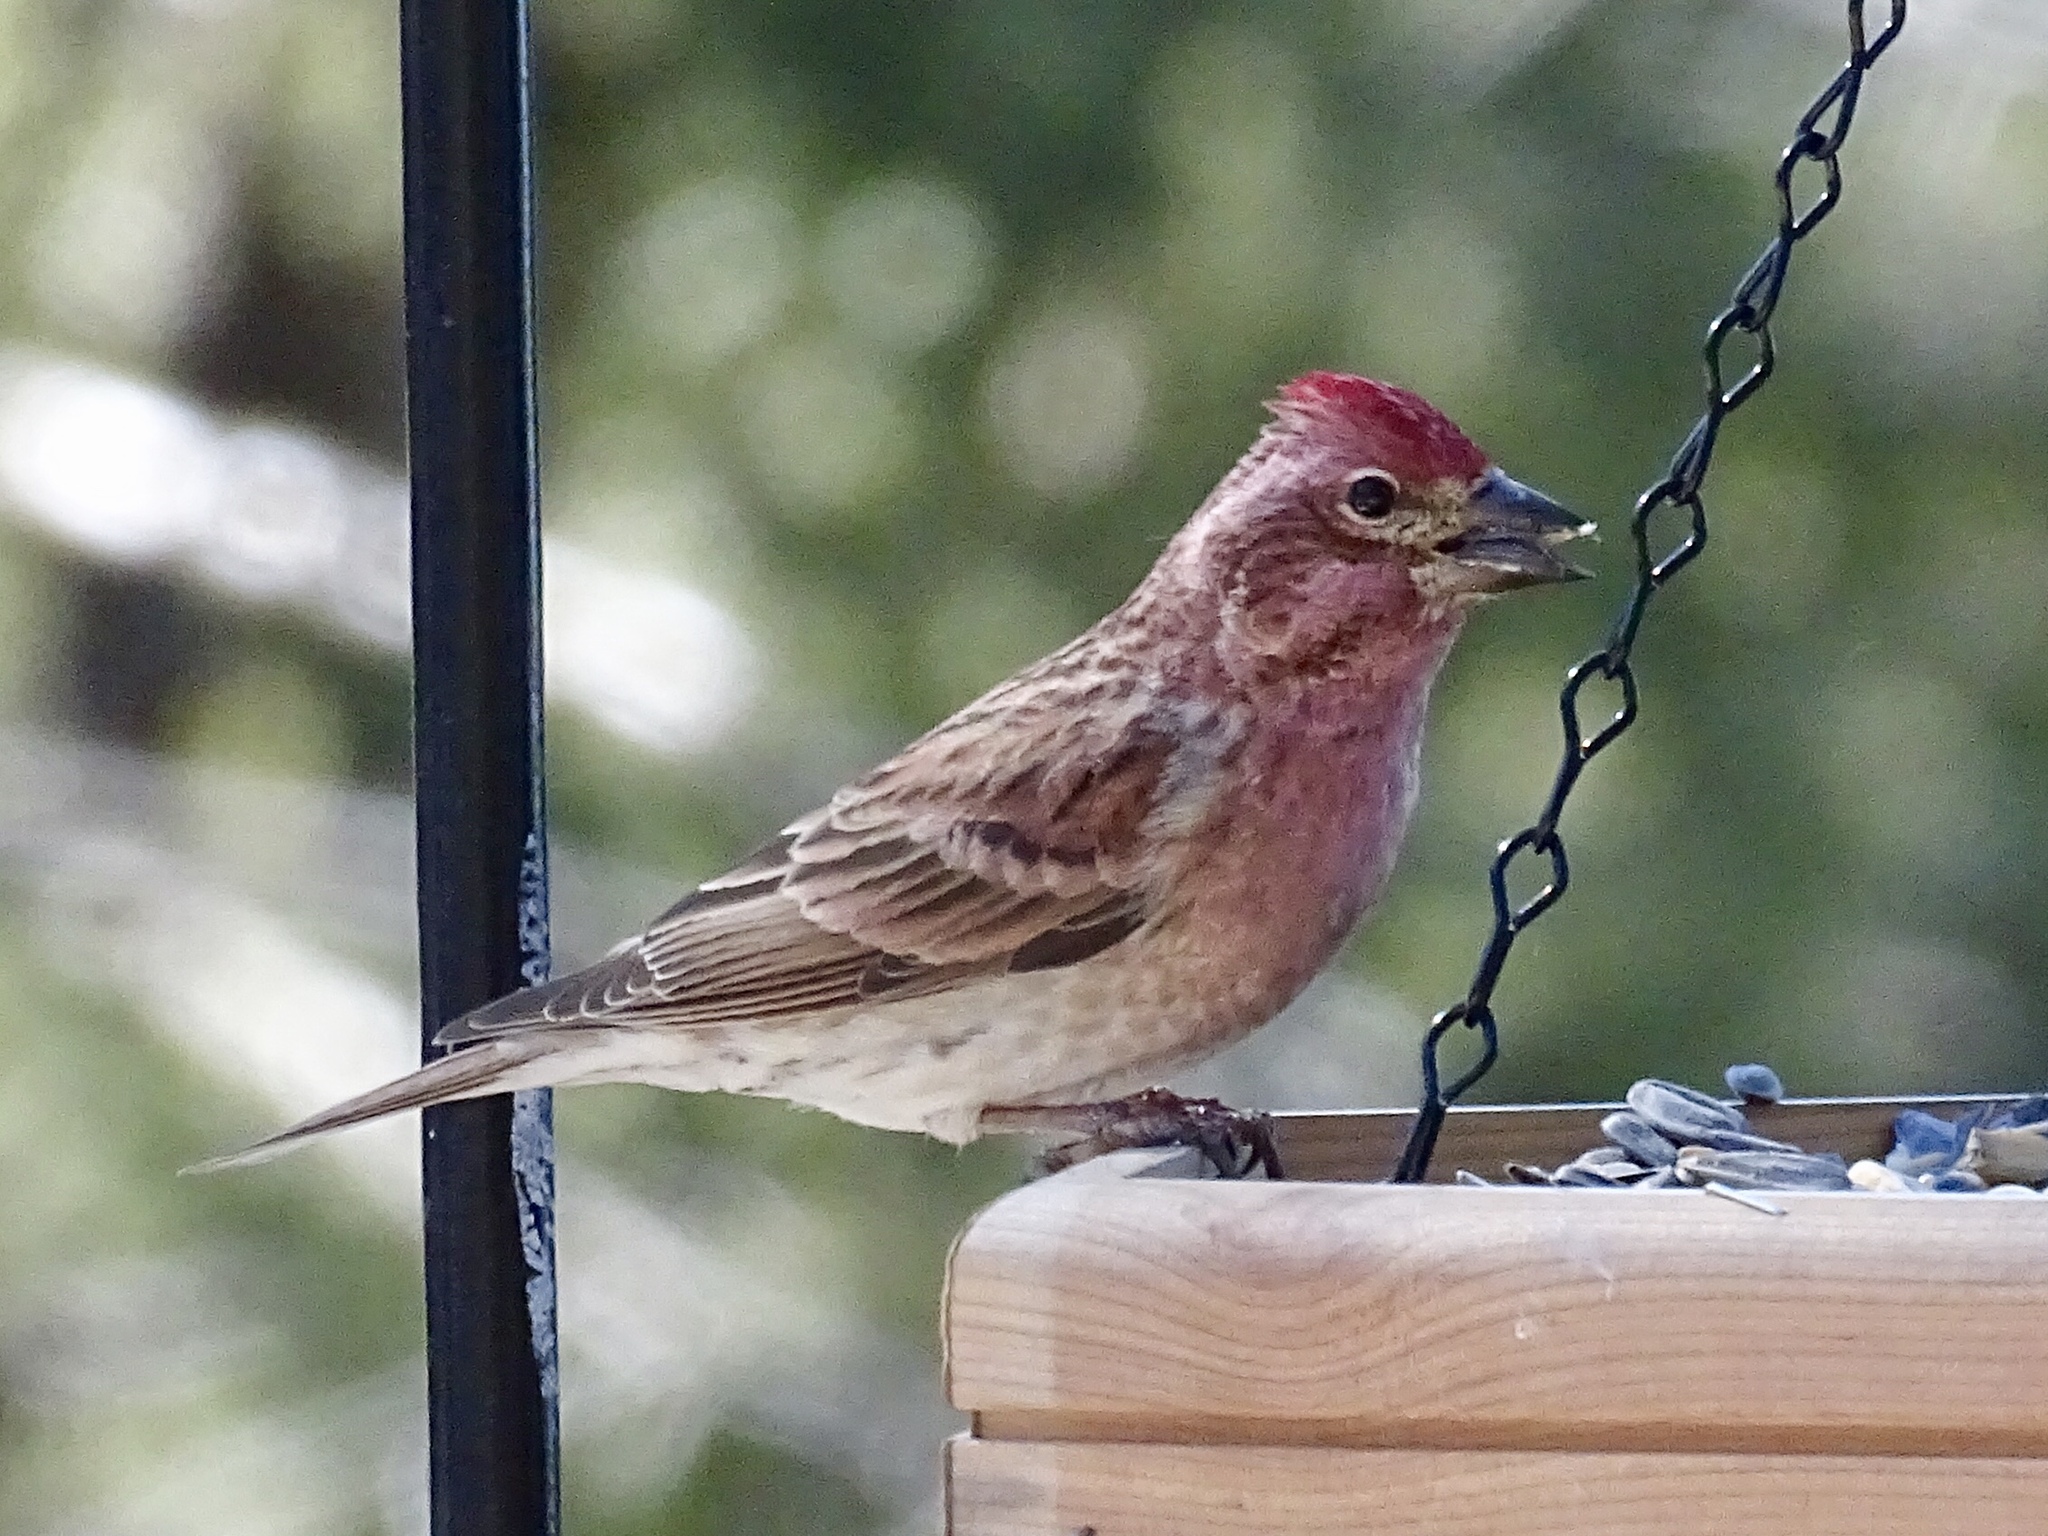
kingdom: Animalia
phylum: Chordata
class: Aves
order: Passeriformes
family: Fringillidae
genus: Haemorhous
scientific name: Haemorhous cassinii
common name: Cassin's finch
